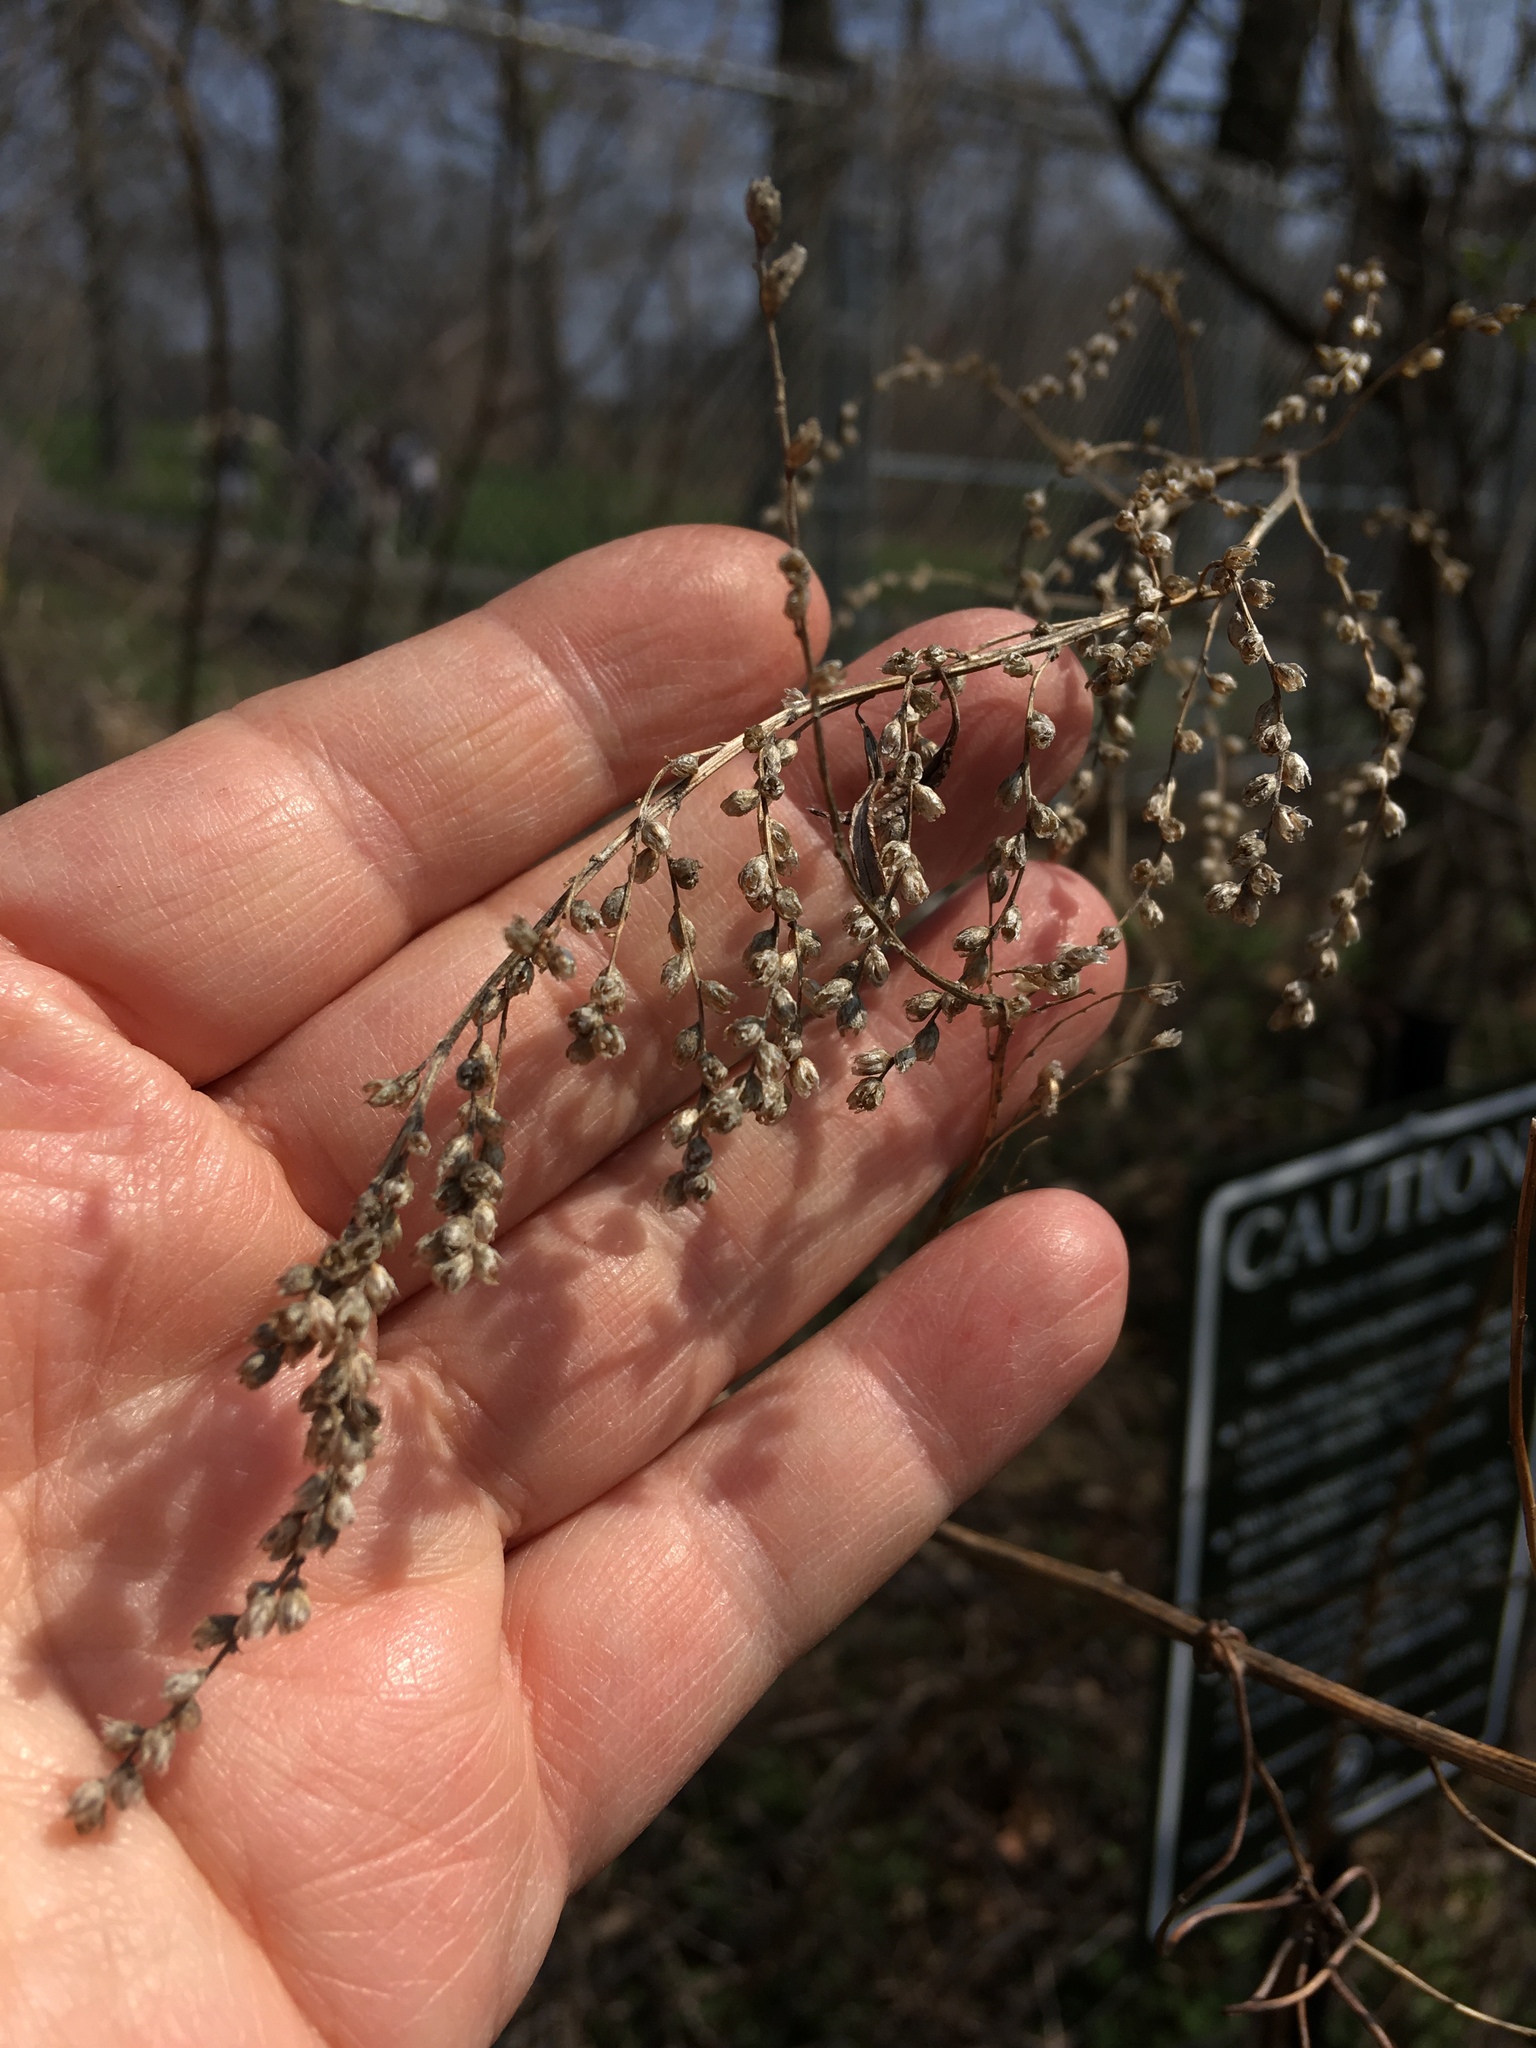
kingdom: Plantae
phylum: Tracheophyta
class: Magnoliopsida
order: Asterales
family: Asteraceae
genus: Artemisia
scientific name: Artemisia vulgaris
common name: Mugwort
